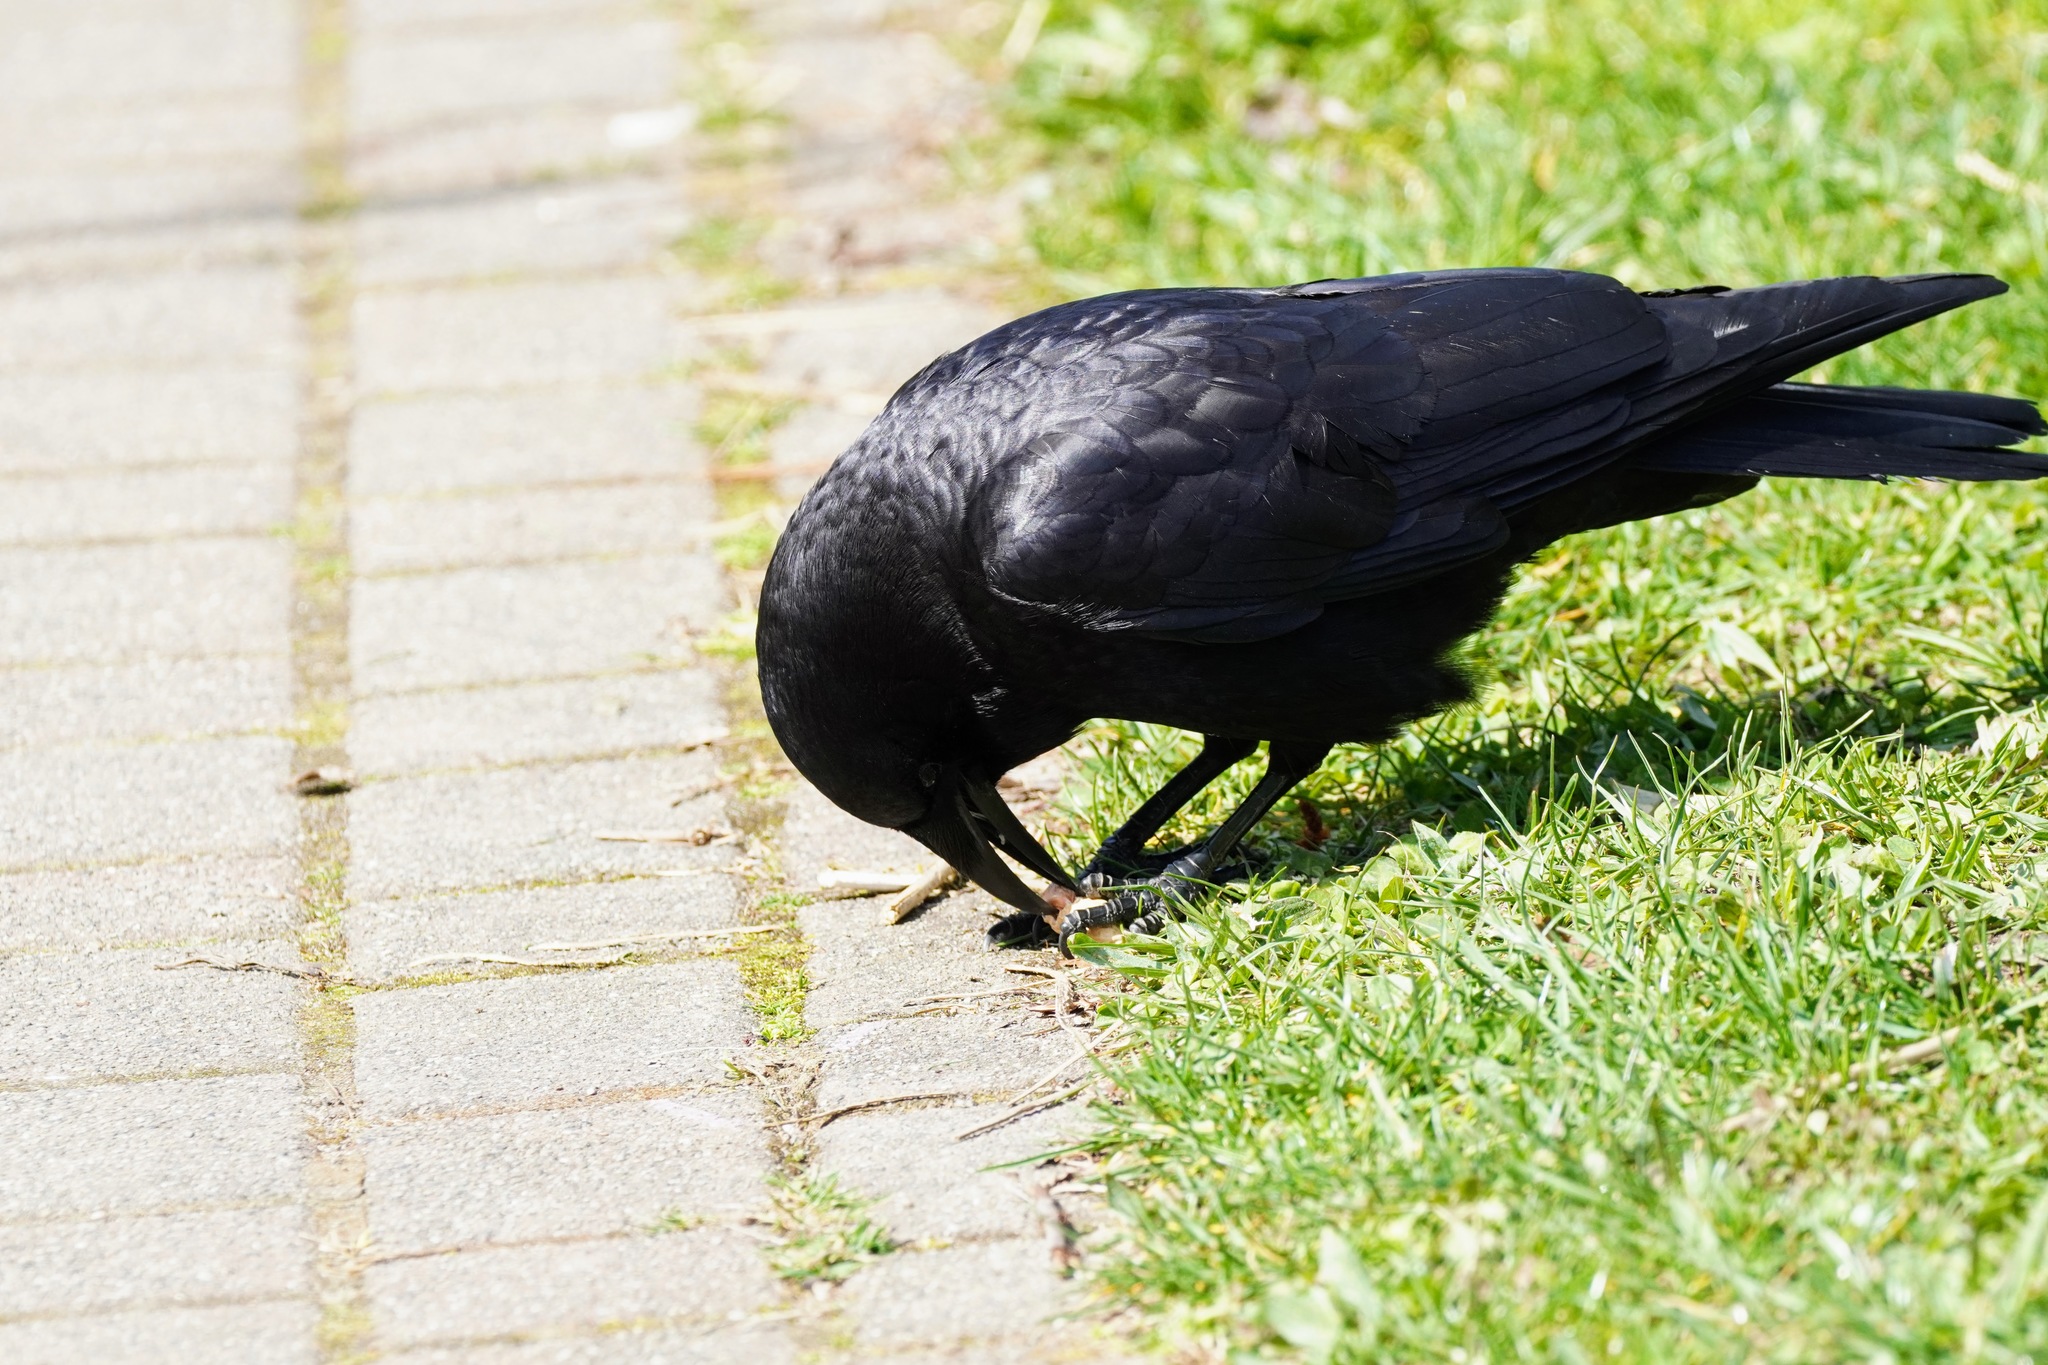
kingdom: Animalia
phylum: Chordata
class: Aves
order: Passeriformes
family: Corvidae
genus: Corvus
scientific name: Corvus brachyrhynchos
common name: American crow
